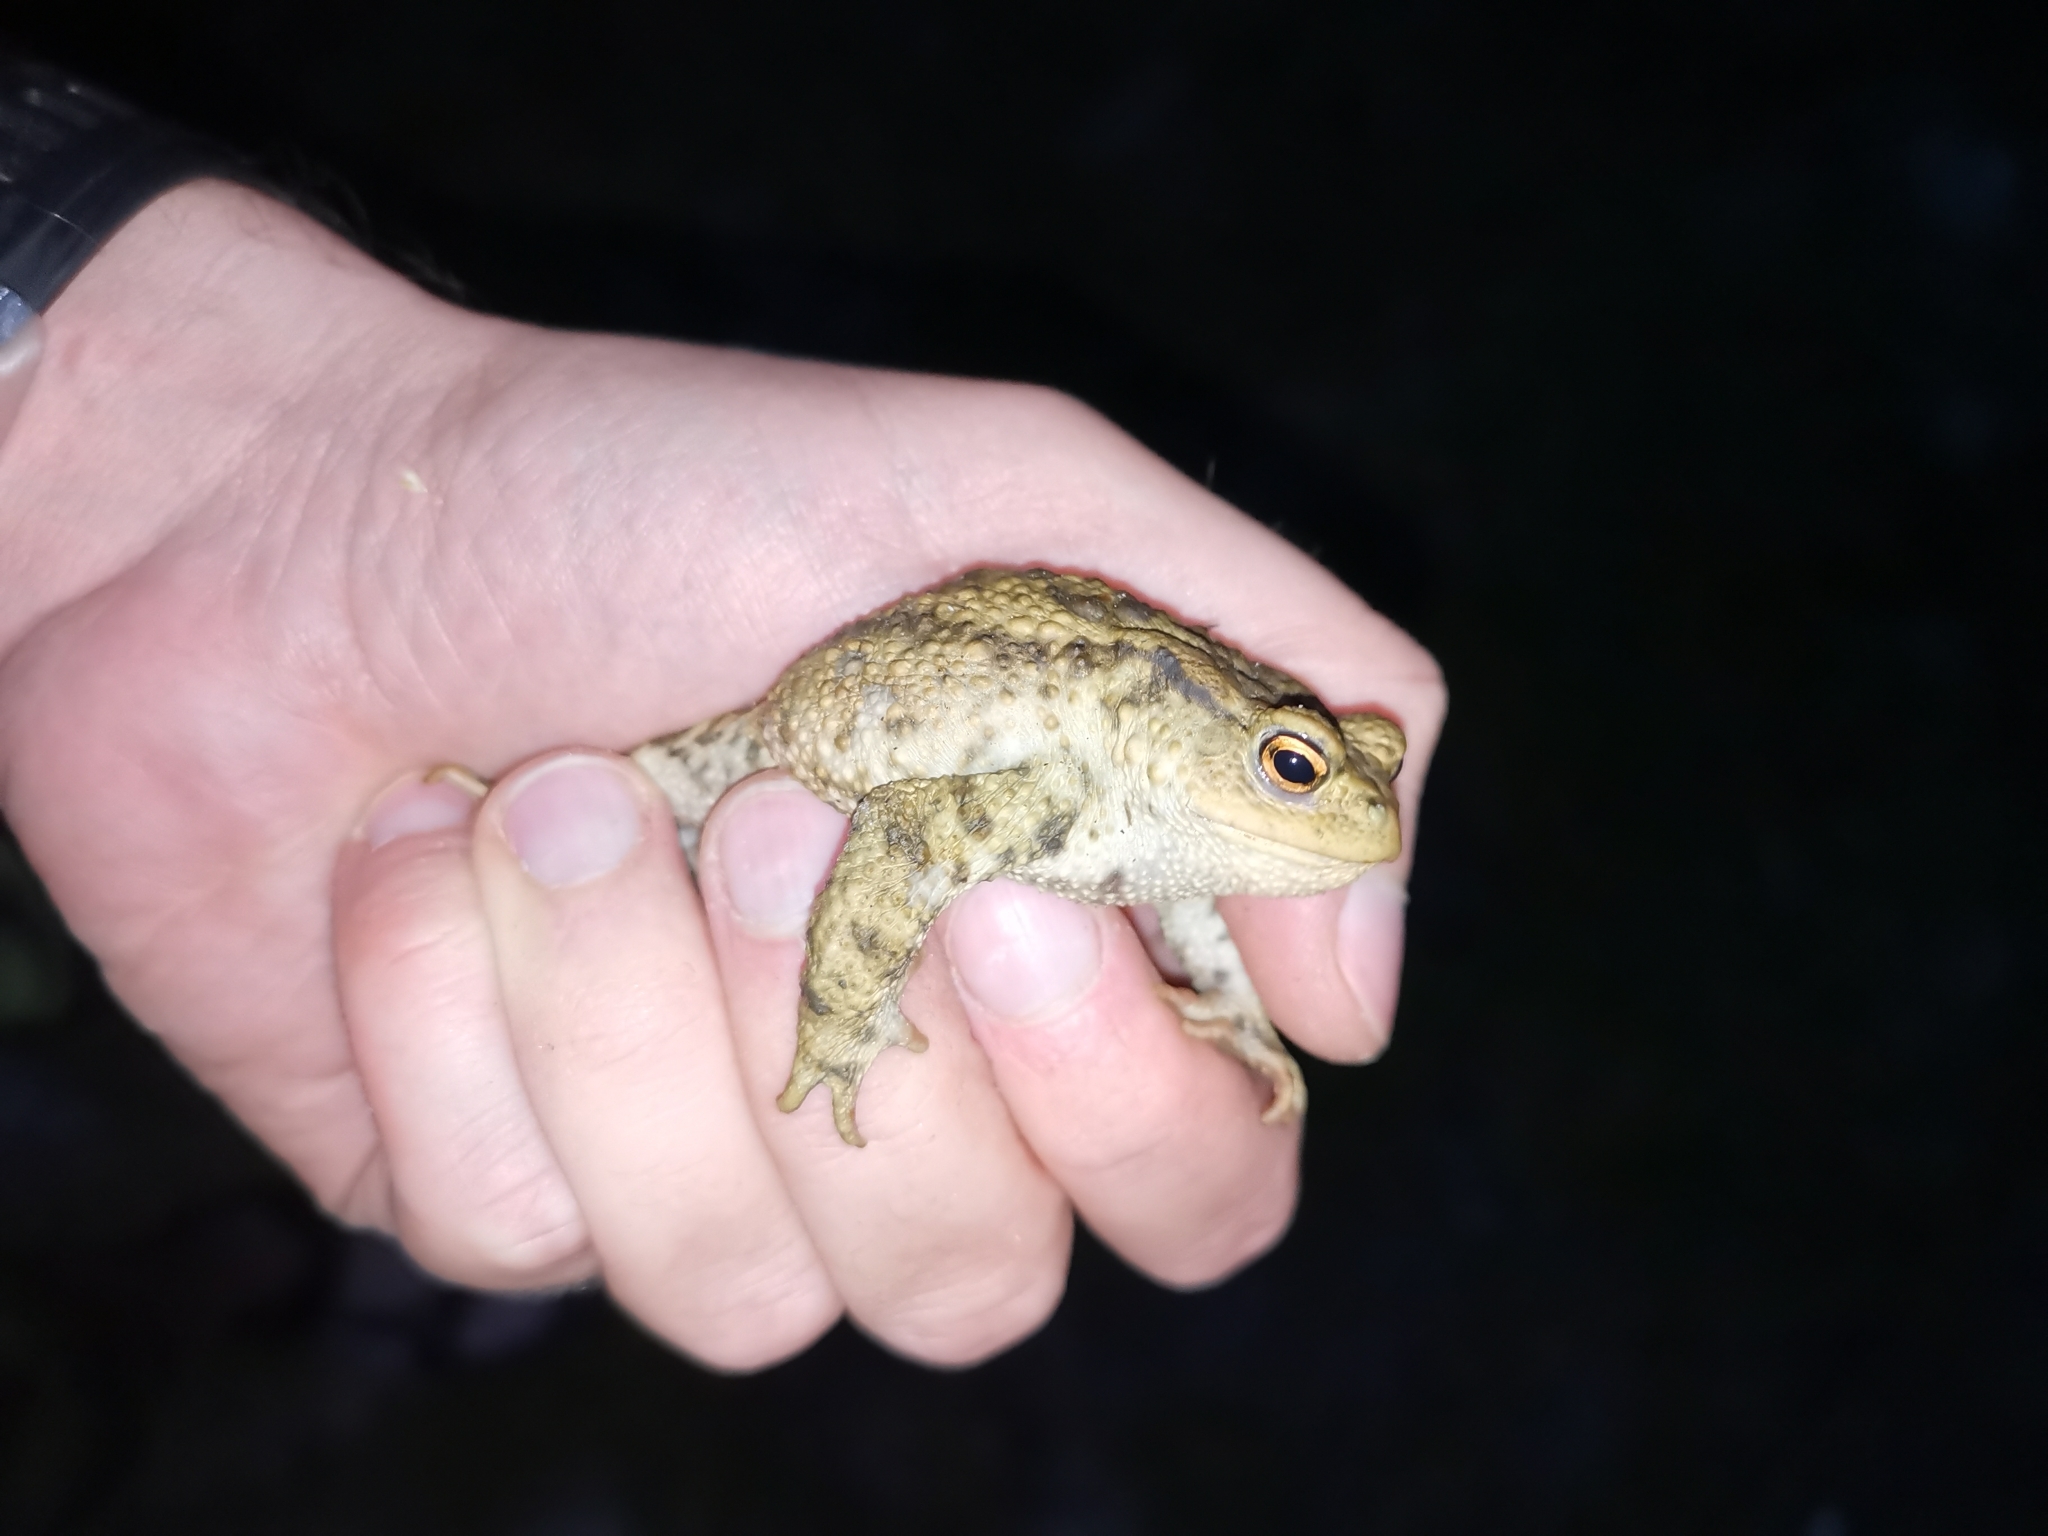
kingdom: Animalia
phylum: Chordata
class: Amphibia
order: Anura
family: Bufonidae
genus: Bufo
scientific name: Bufo bufo
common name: Common toad
